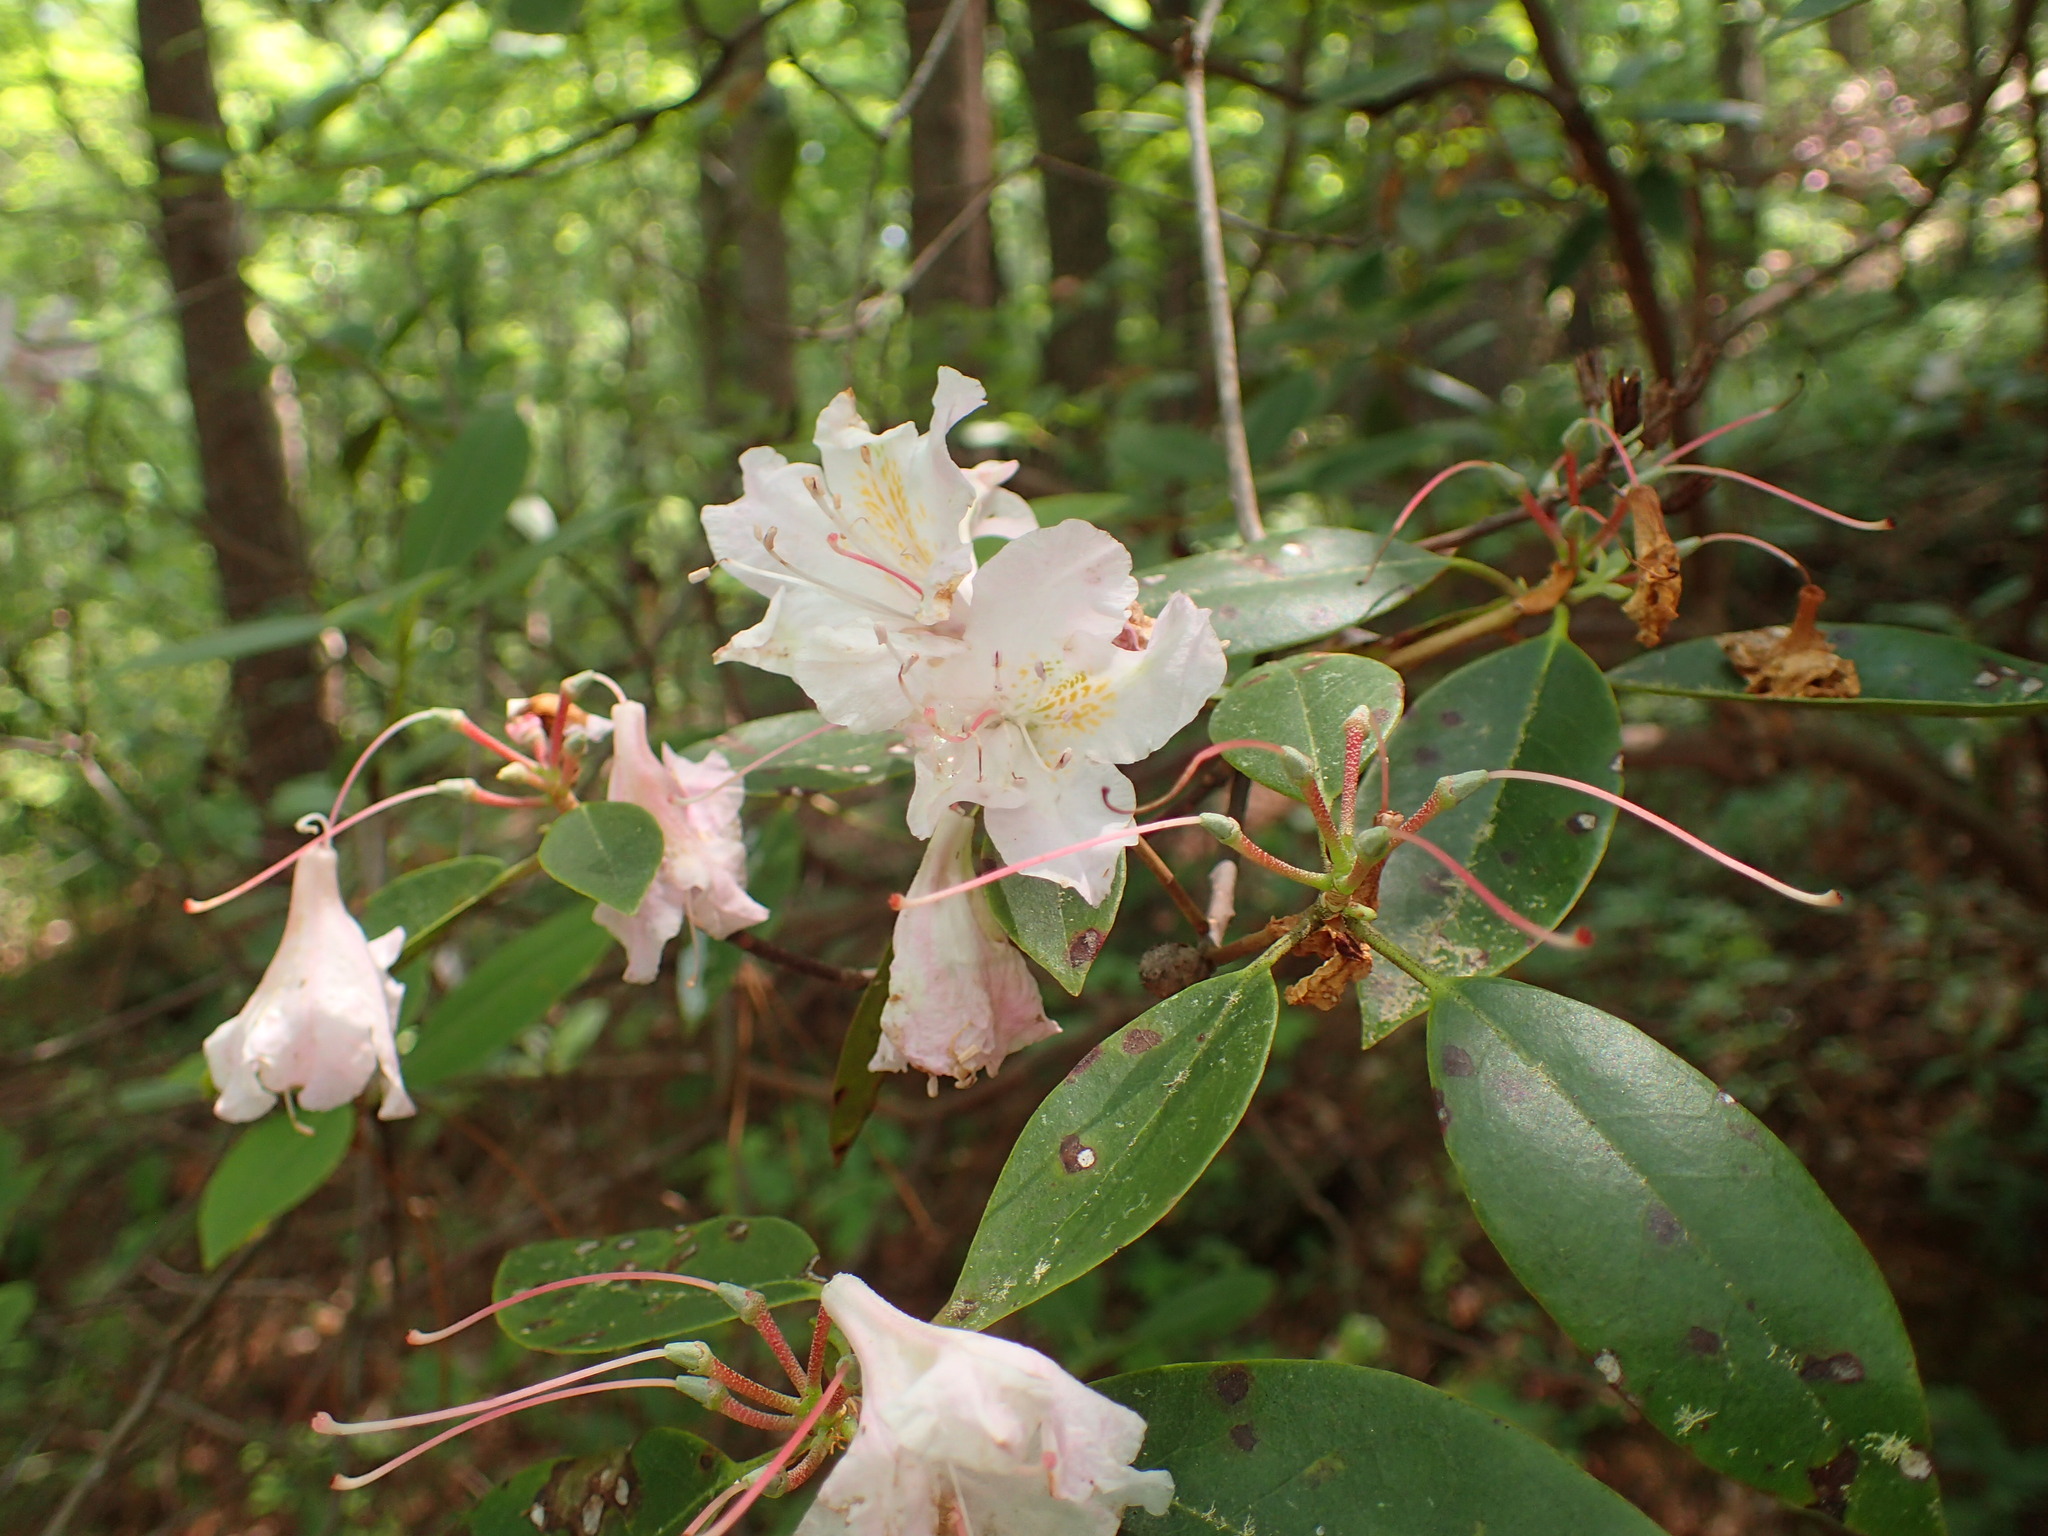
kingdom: Plantae
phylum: Tracheophyta
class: Magnoliopsida
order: Ericales
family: Ericaceae
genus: Rhododendron
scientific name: Rhododendron minus
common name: Piedmont rhododendron
